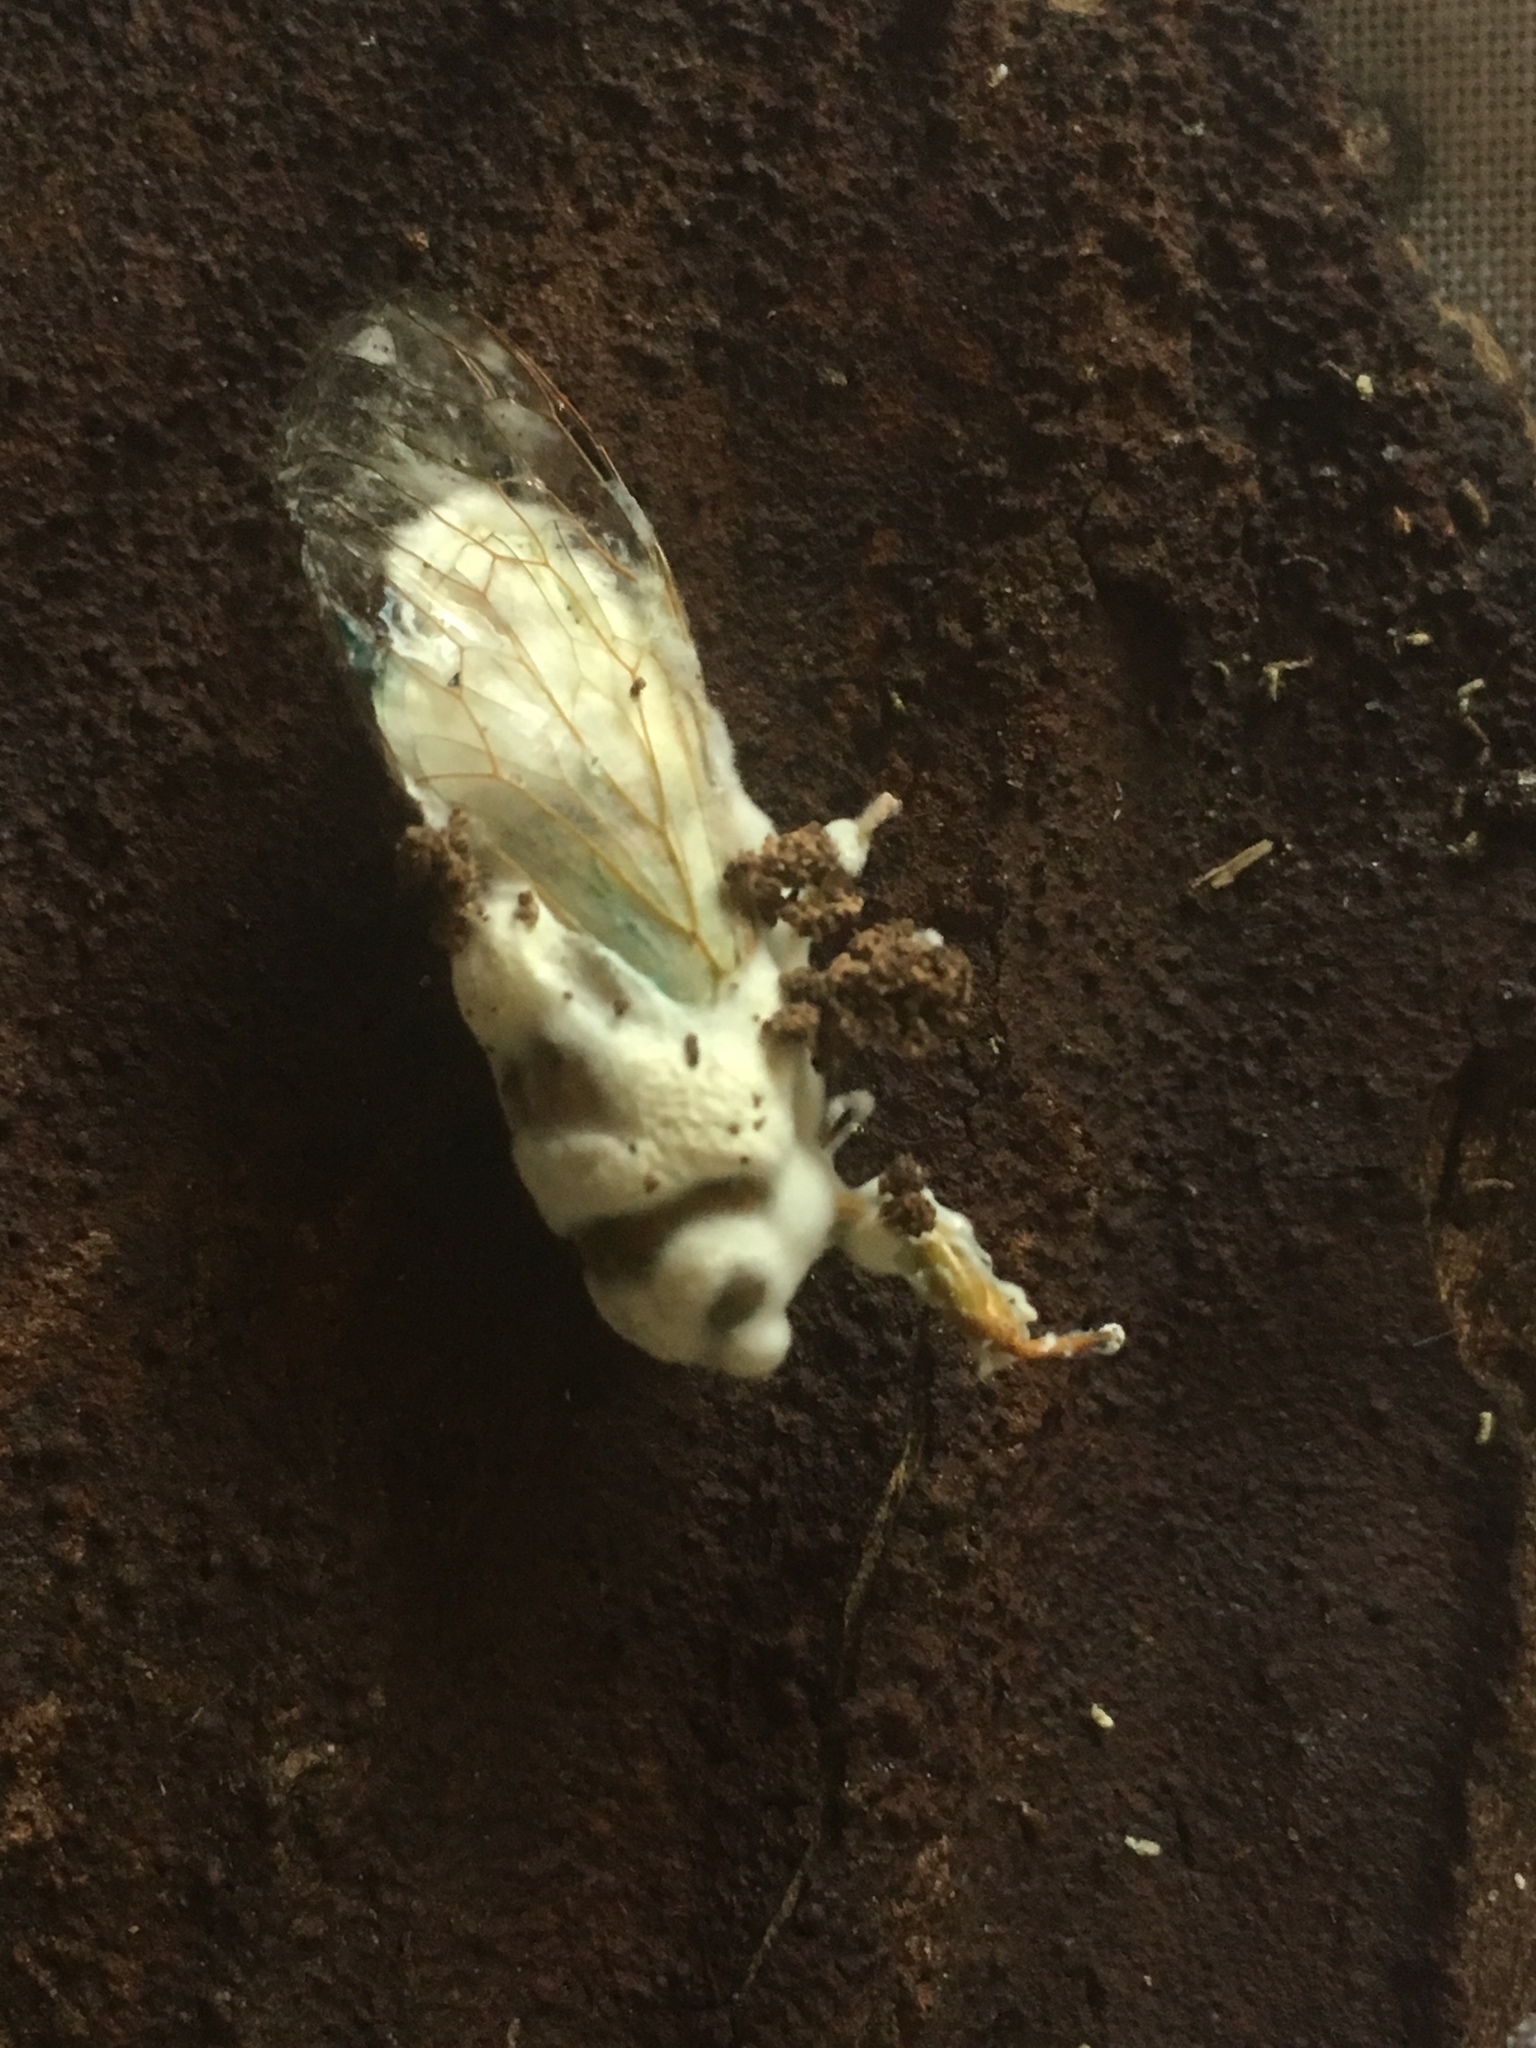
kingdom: Fungi
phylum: Ascomycota
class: Sordariomycetes
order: Hypocreales
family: Cordycipitaceae
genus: Beauveria
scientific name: Beauveria bassiana
